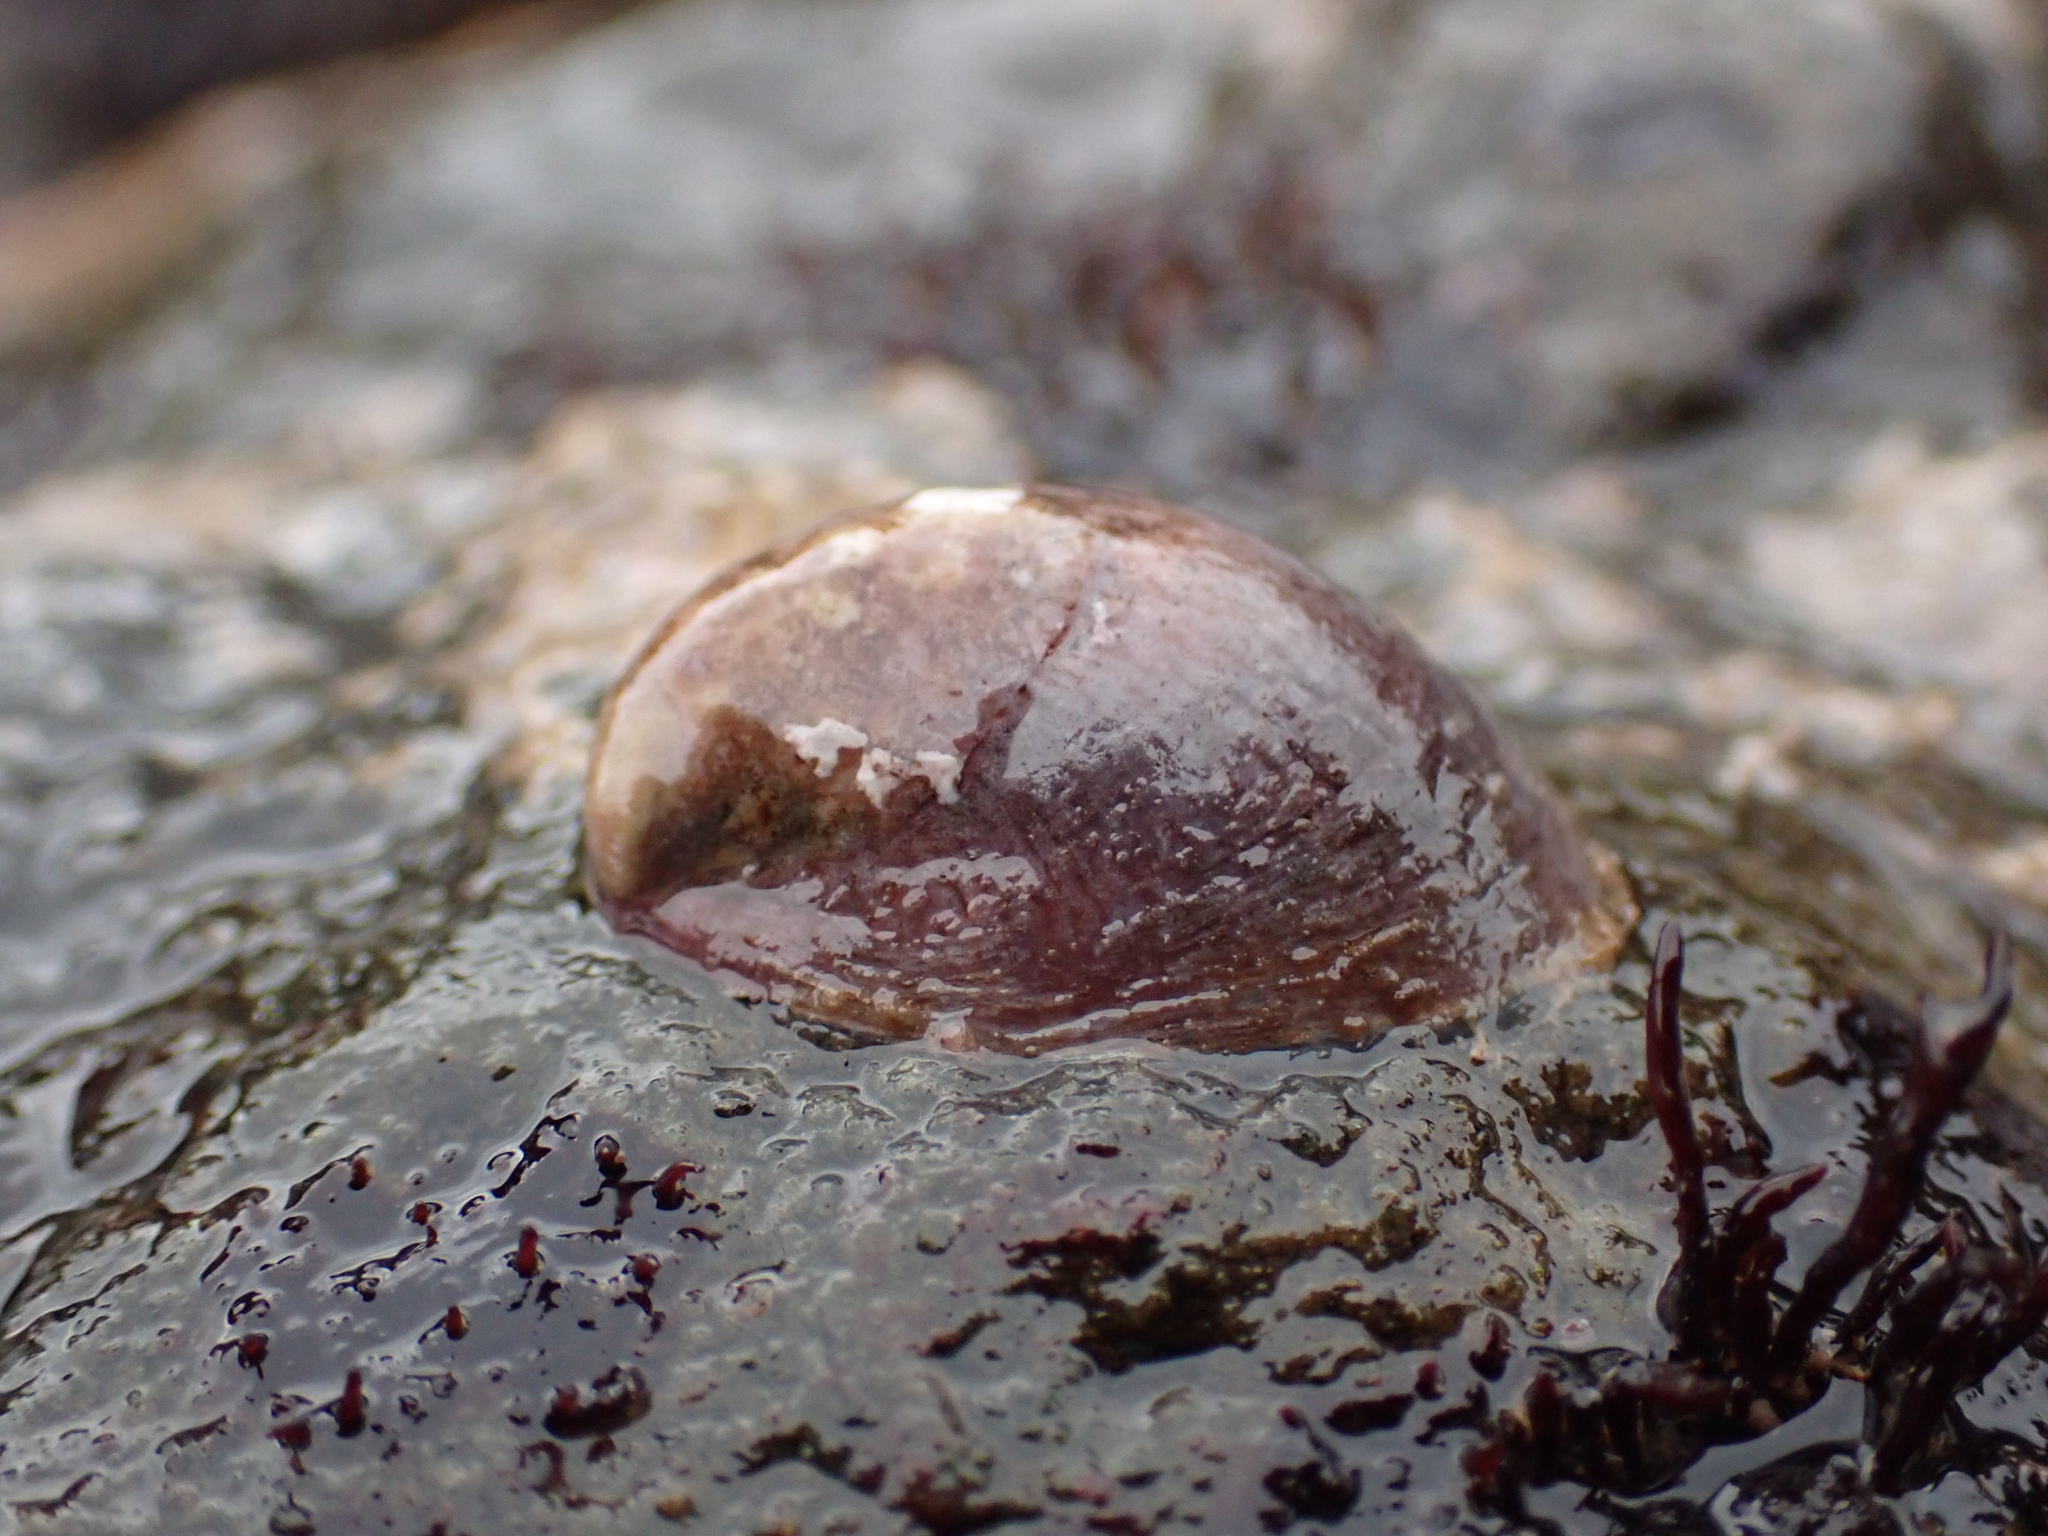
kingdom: Animalia
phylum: Mollusca
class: Gastropoda
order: Littorinimorpha
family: Calyptraeidae
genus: Crepidula
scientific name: Crepidula fornicata
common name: Slipper limpet
